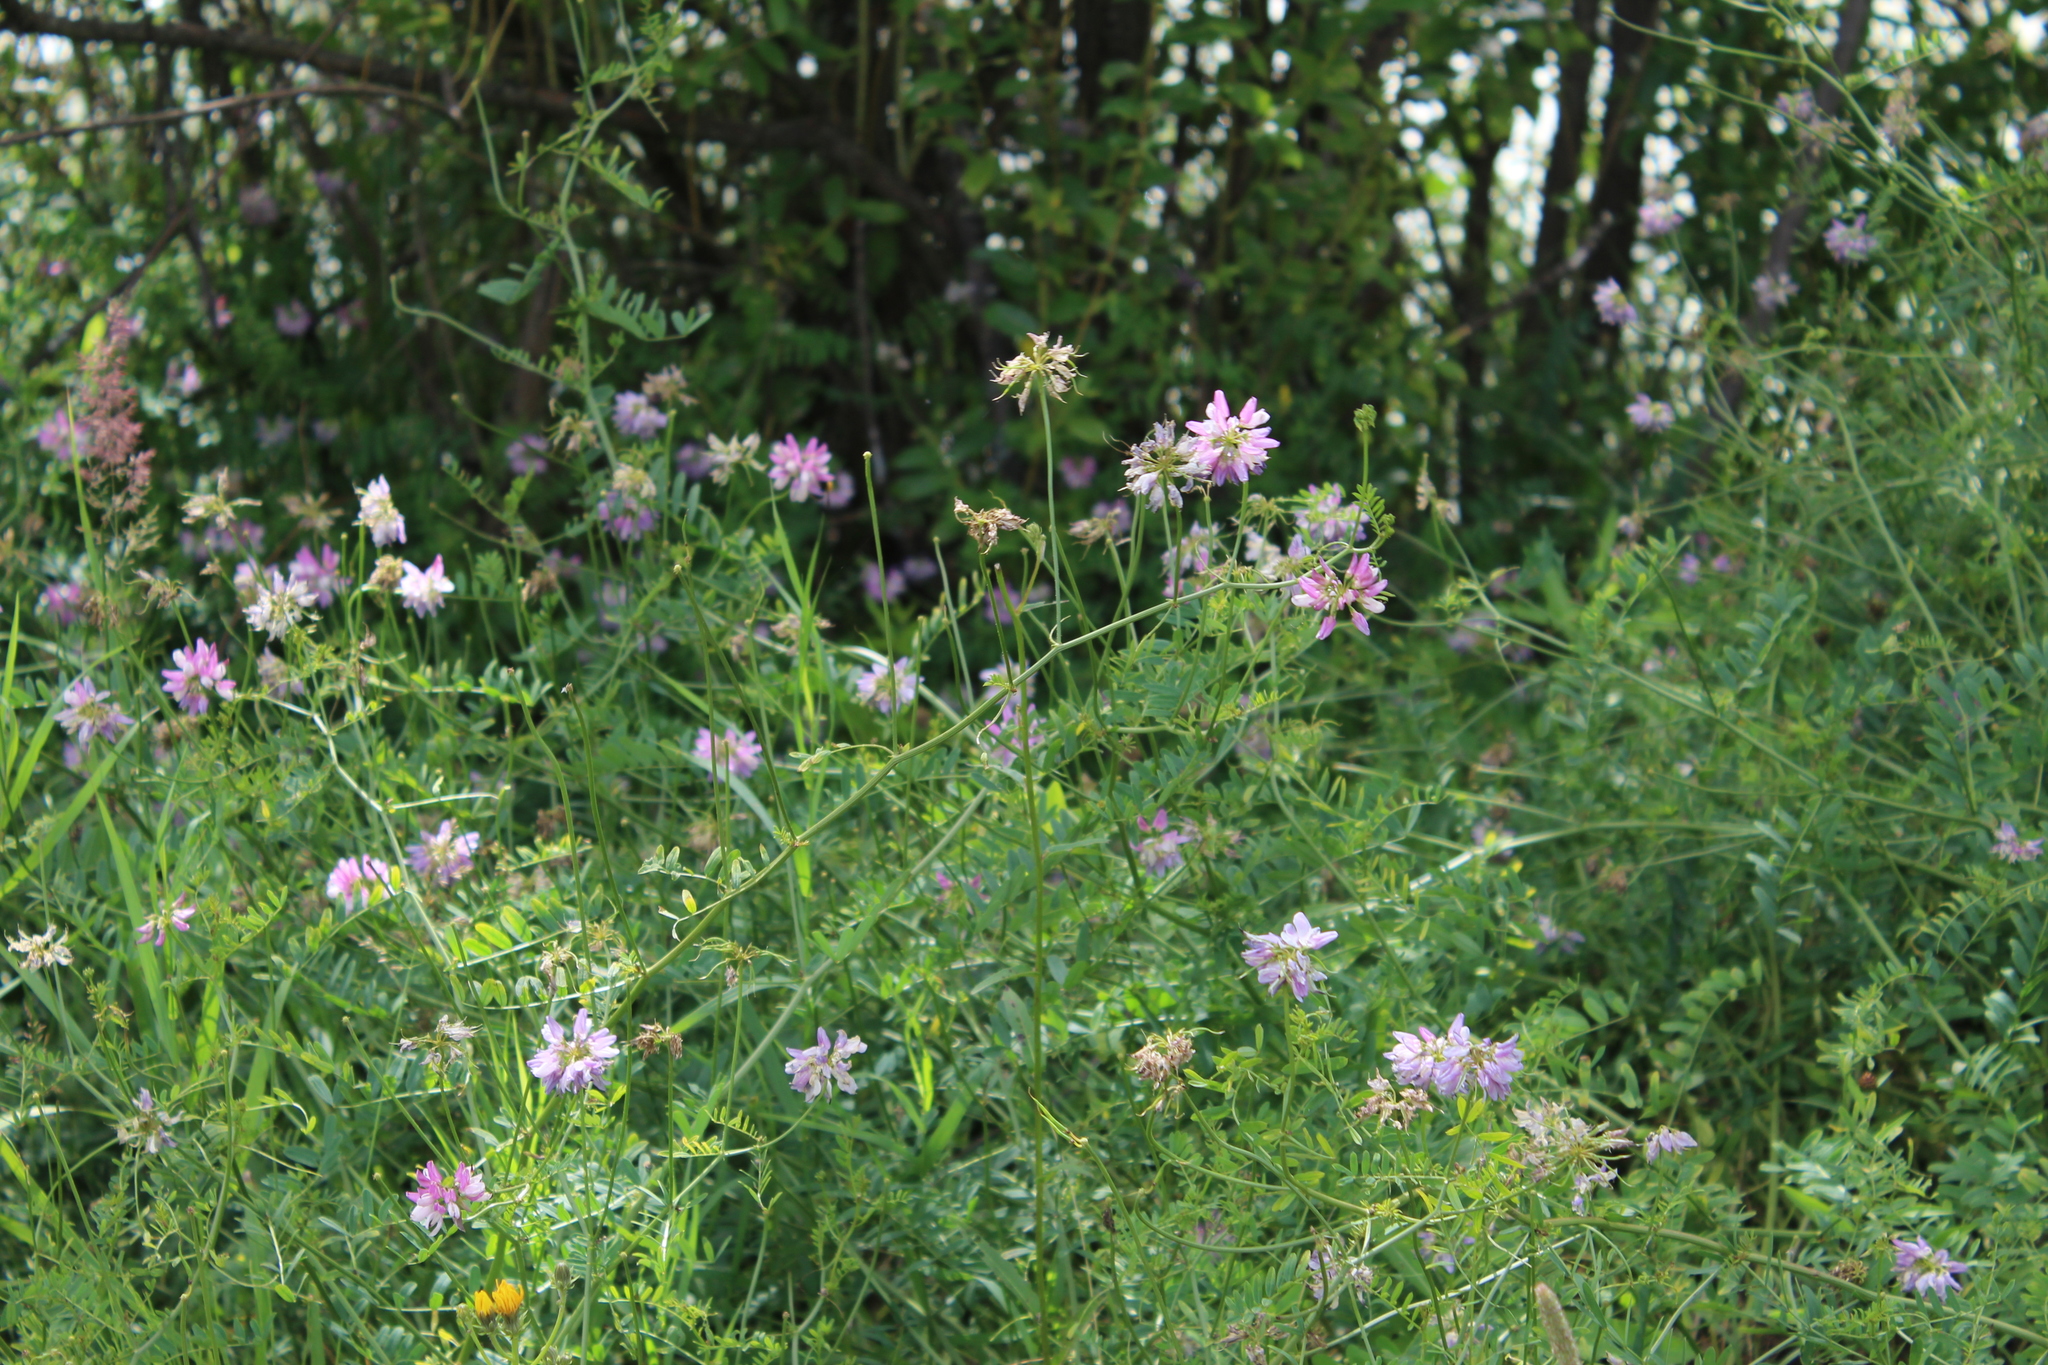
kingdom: Plantae
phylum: Tracheophyta
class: Magnoliopsida
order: Fabales
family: Fabaceae
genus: Coronilla
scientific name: Coronilla varia
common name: Crownvetch
